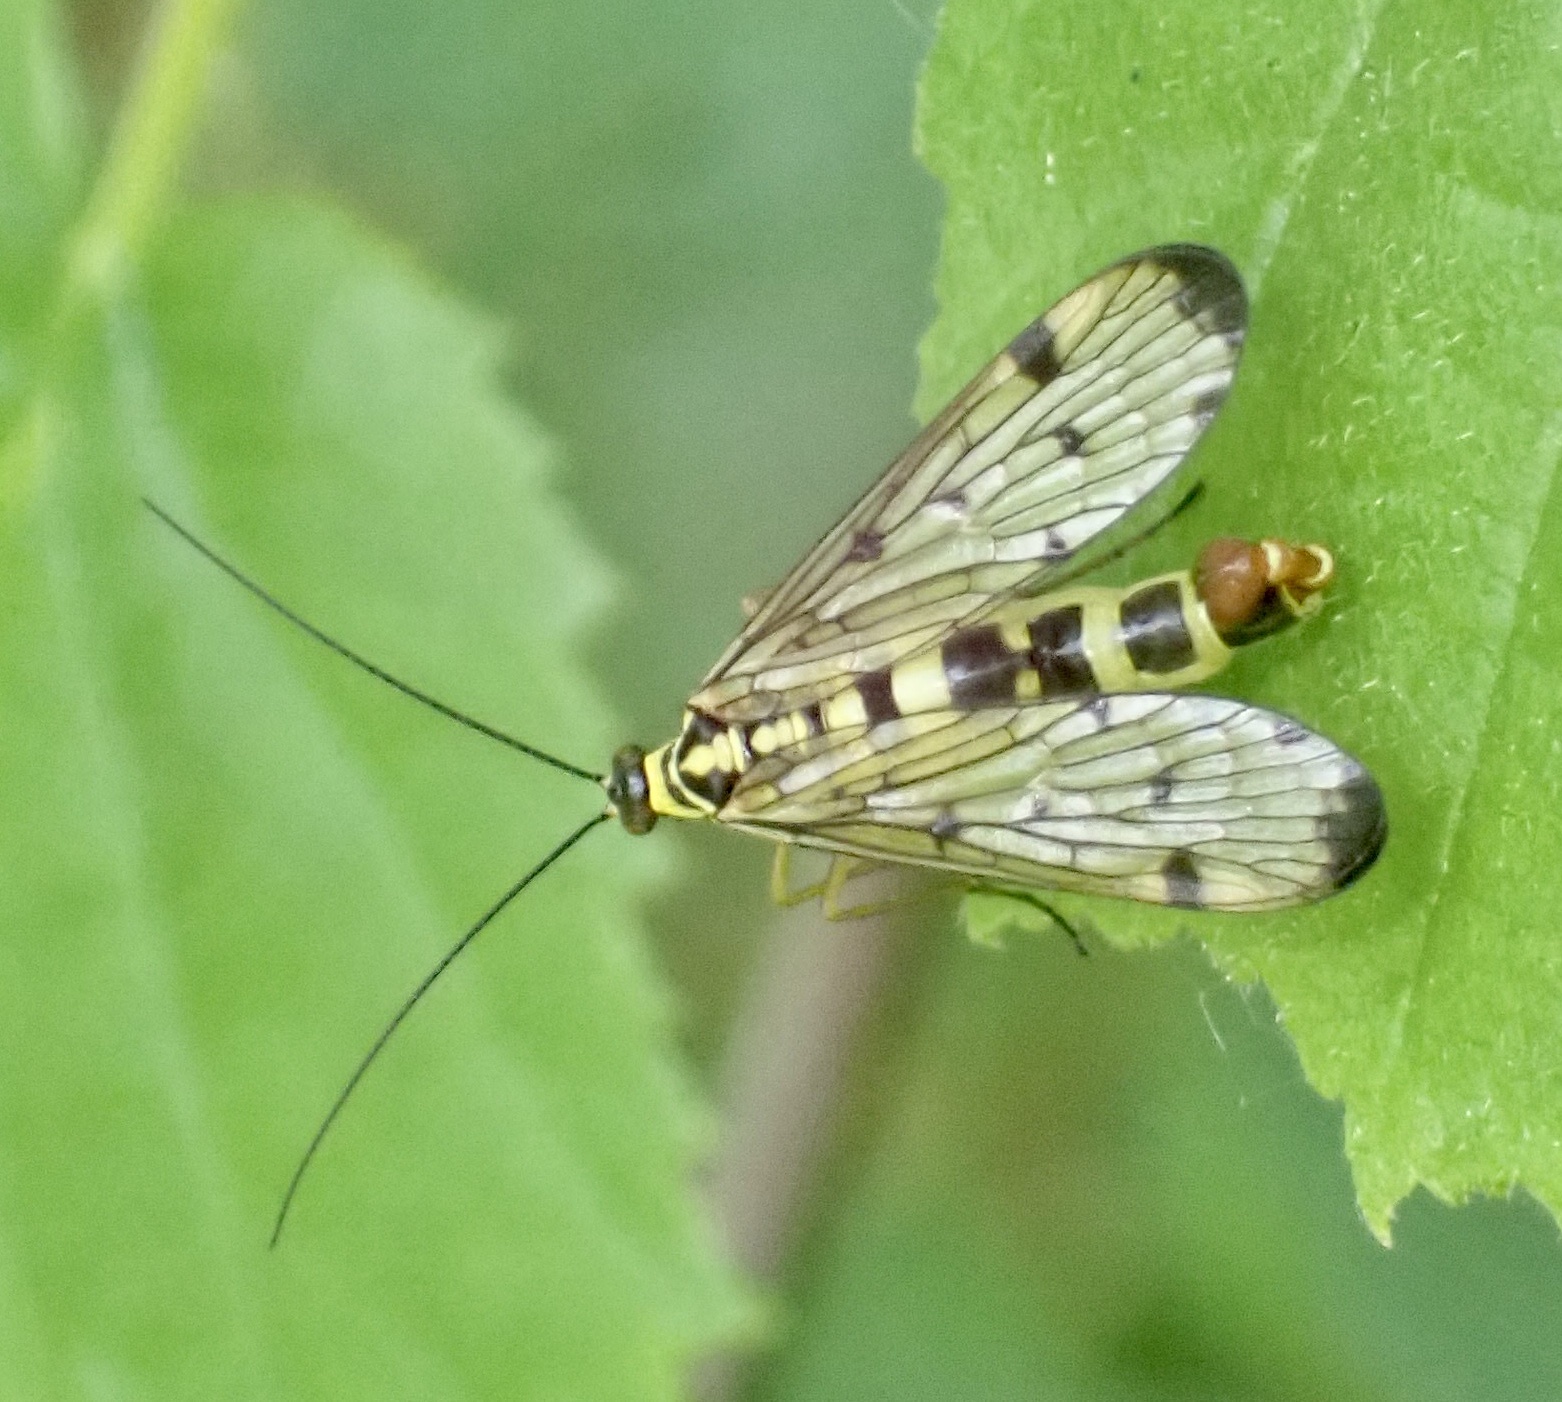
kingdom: Animalia
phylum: Arthropoda
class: Insecta
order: Mecoptera
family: Panorpidae
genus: Panorpa
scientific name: Panorpa germanica
